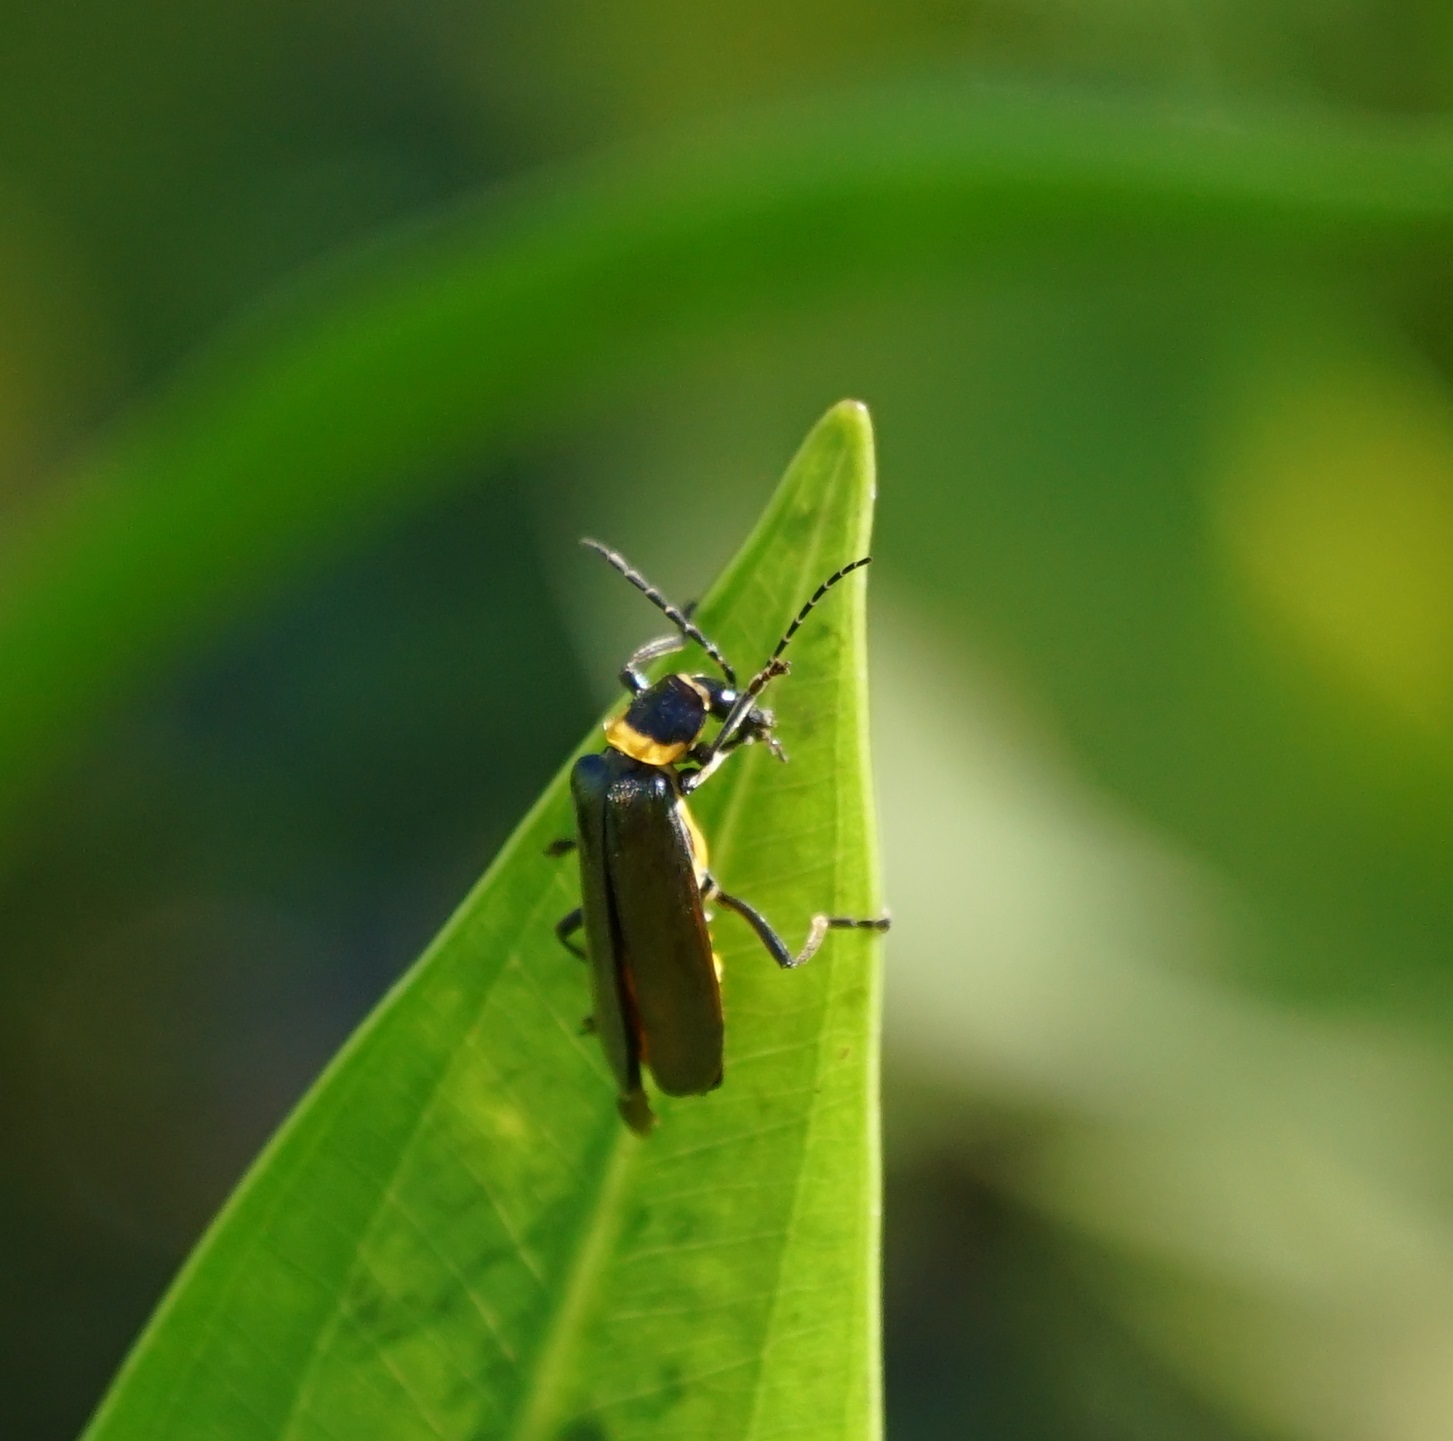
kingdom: Animalia
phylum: Arthropoda
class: Insecta
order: Coleoptera
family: Cantharidae
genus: Chauliognathus
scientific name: Chauliognathus
